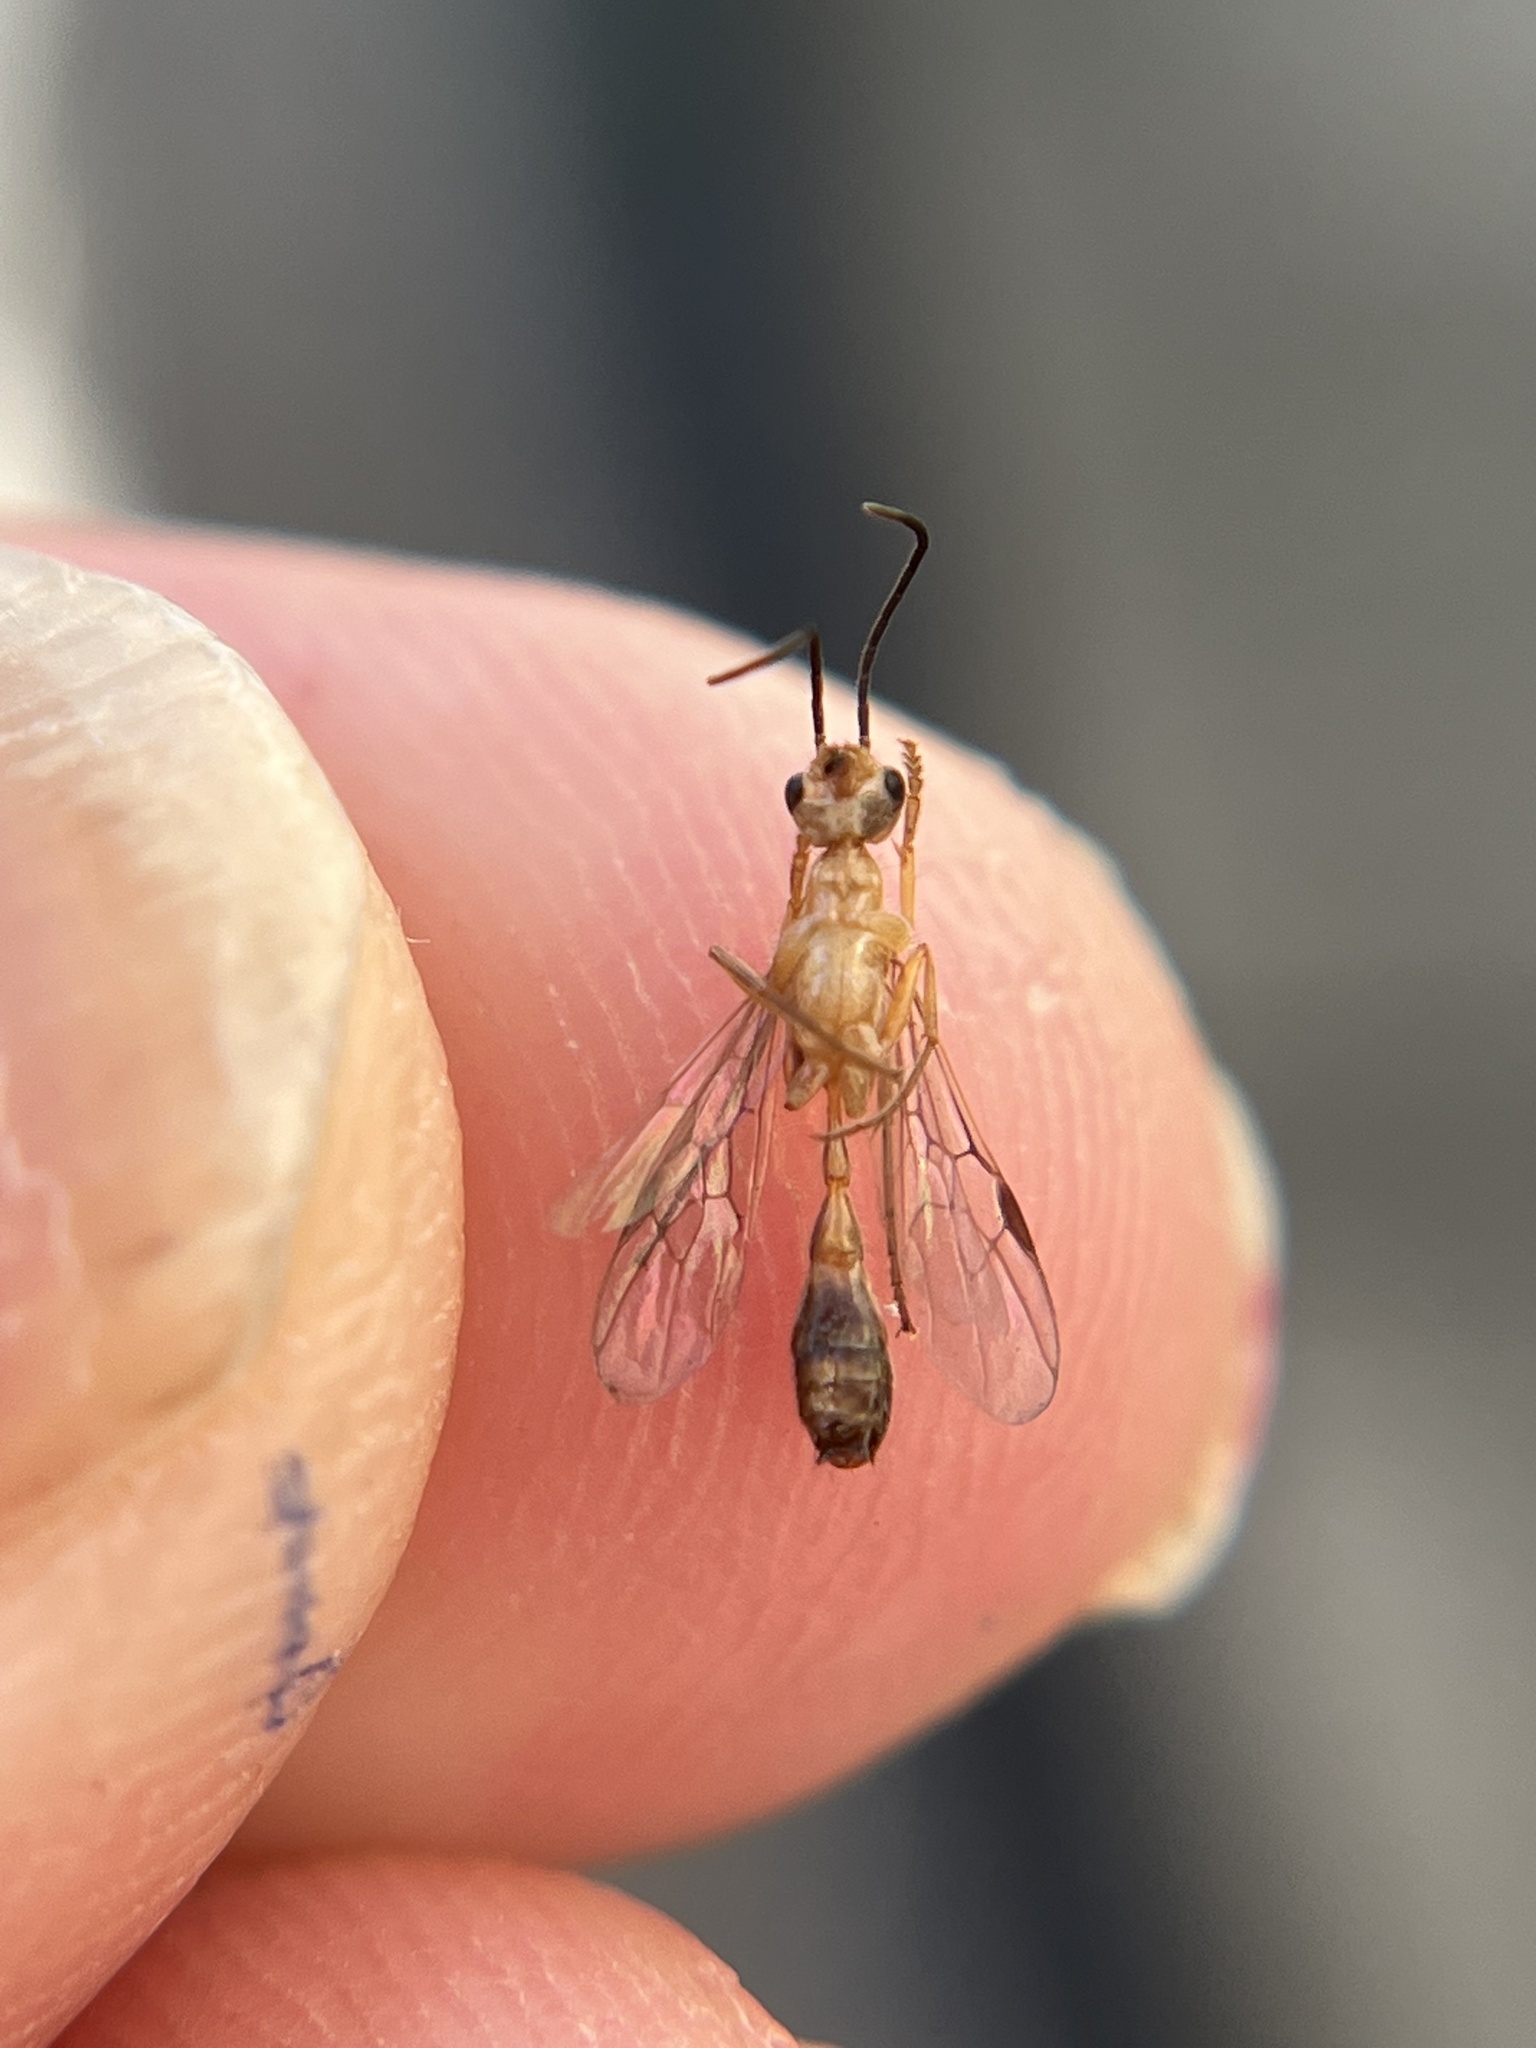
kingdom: Animalia
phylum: Arthropoda
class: Insecta
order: Hymenoptera
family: Formicidae
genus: Pseudomyrmex
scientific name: Pseudomyrmex gracilis
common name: Graceful twig ant
